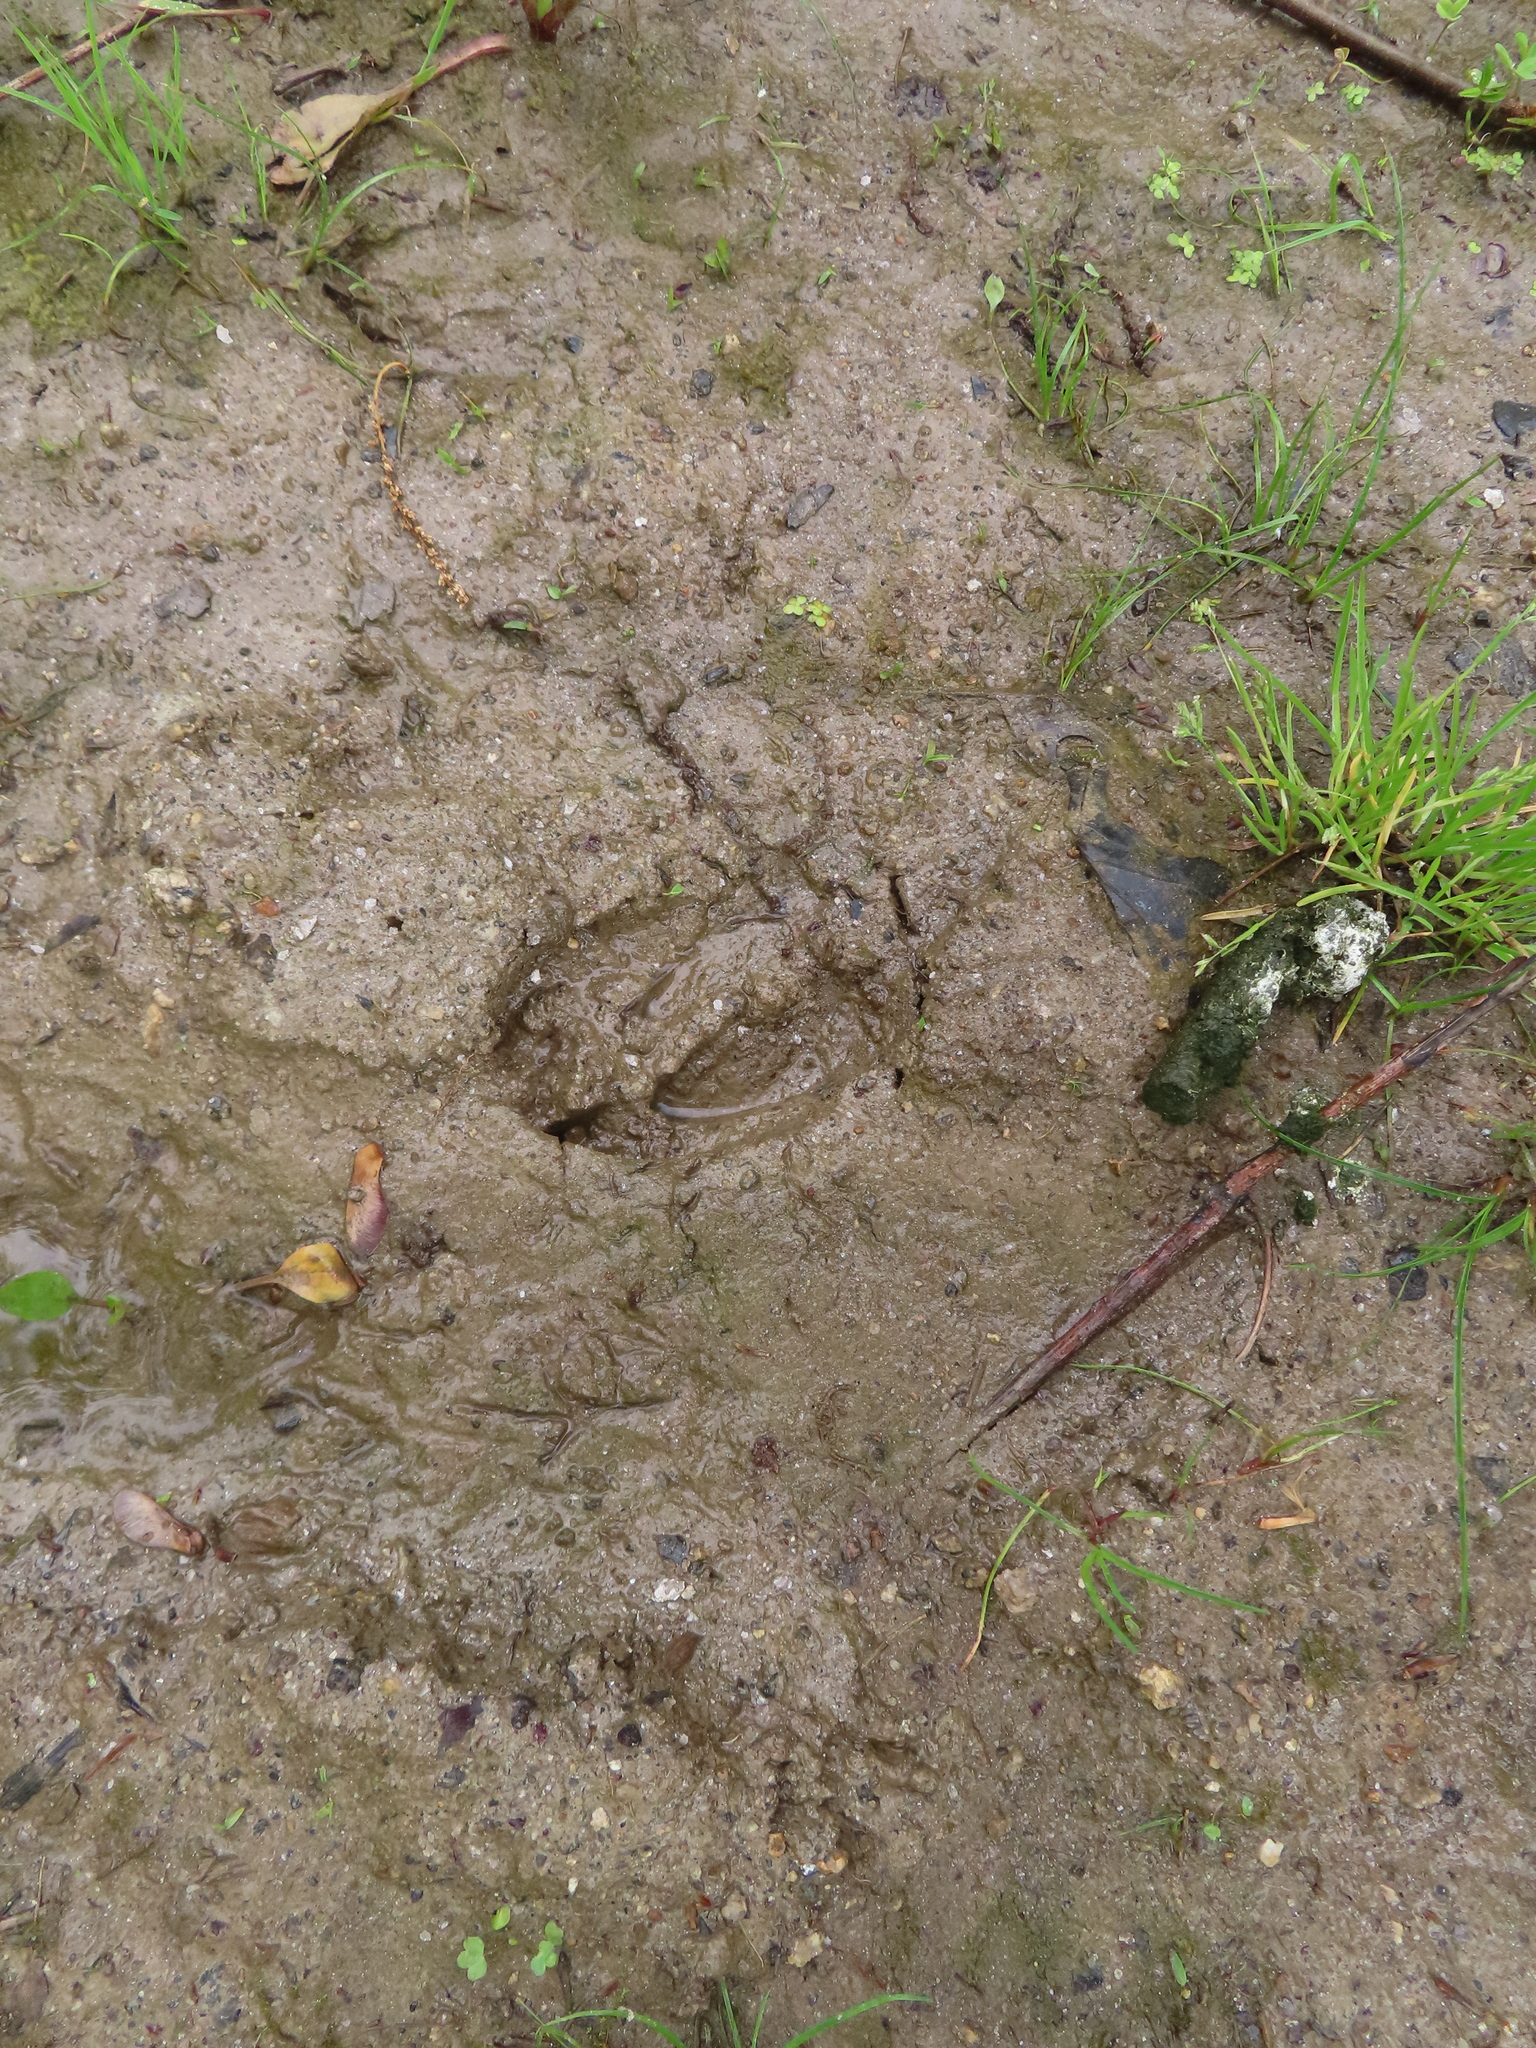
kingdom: Animalia
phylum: Chordata
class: Mammalia
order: Artiodactyla
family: Cervidae
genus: Odocoileus
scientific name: Odocoileus virginianus
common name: White-tailed deer
